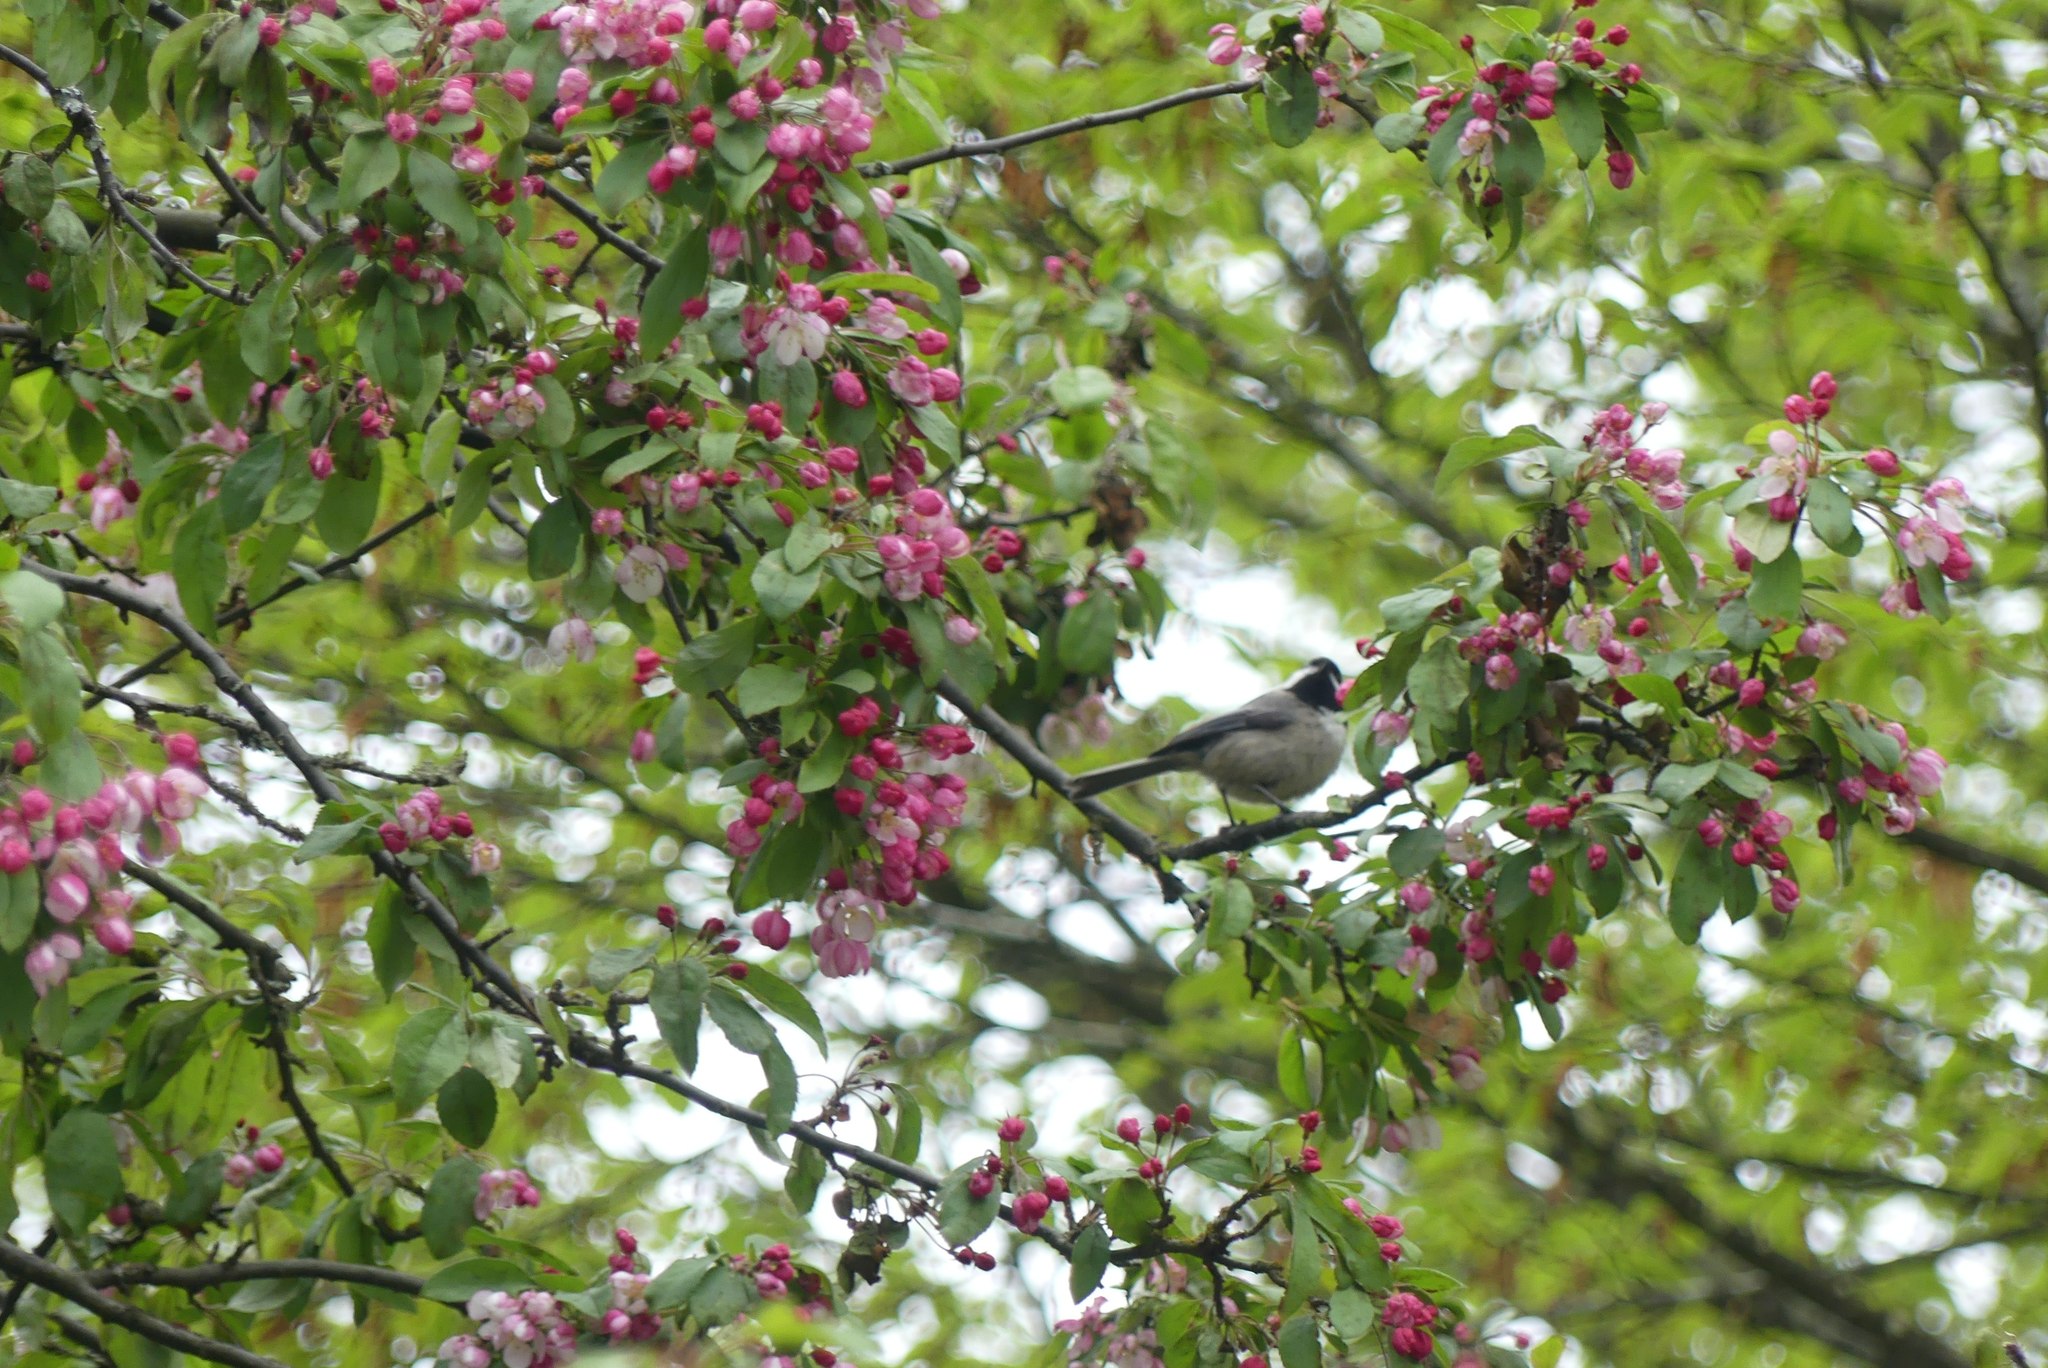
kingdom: Animalia
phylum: Chordata
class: Aves
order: Passeriformes
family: Paridae
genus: Poecile
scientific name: Poecile atricapillus
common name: Black-capped chickadee
